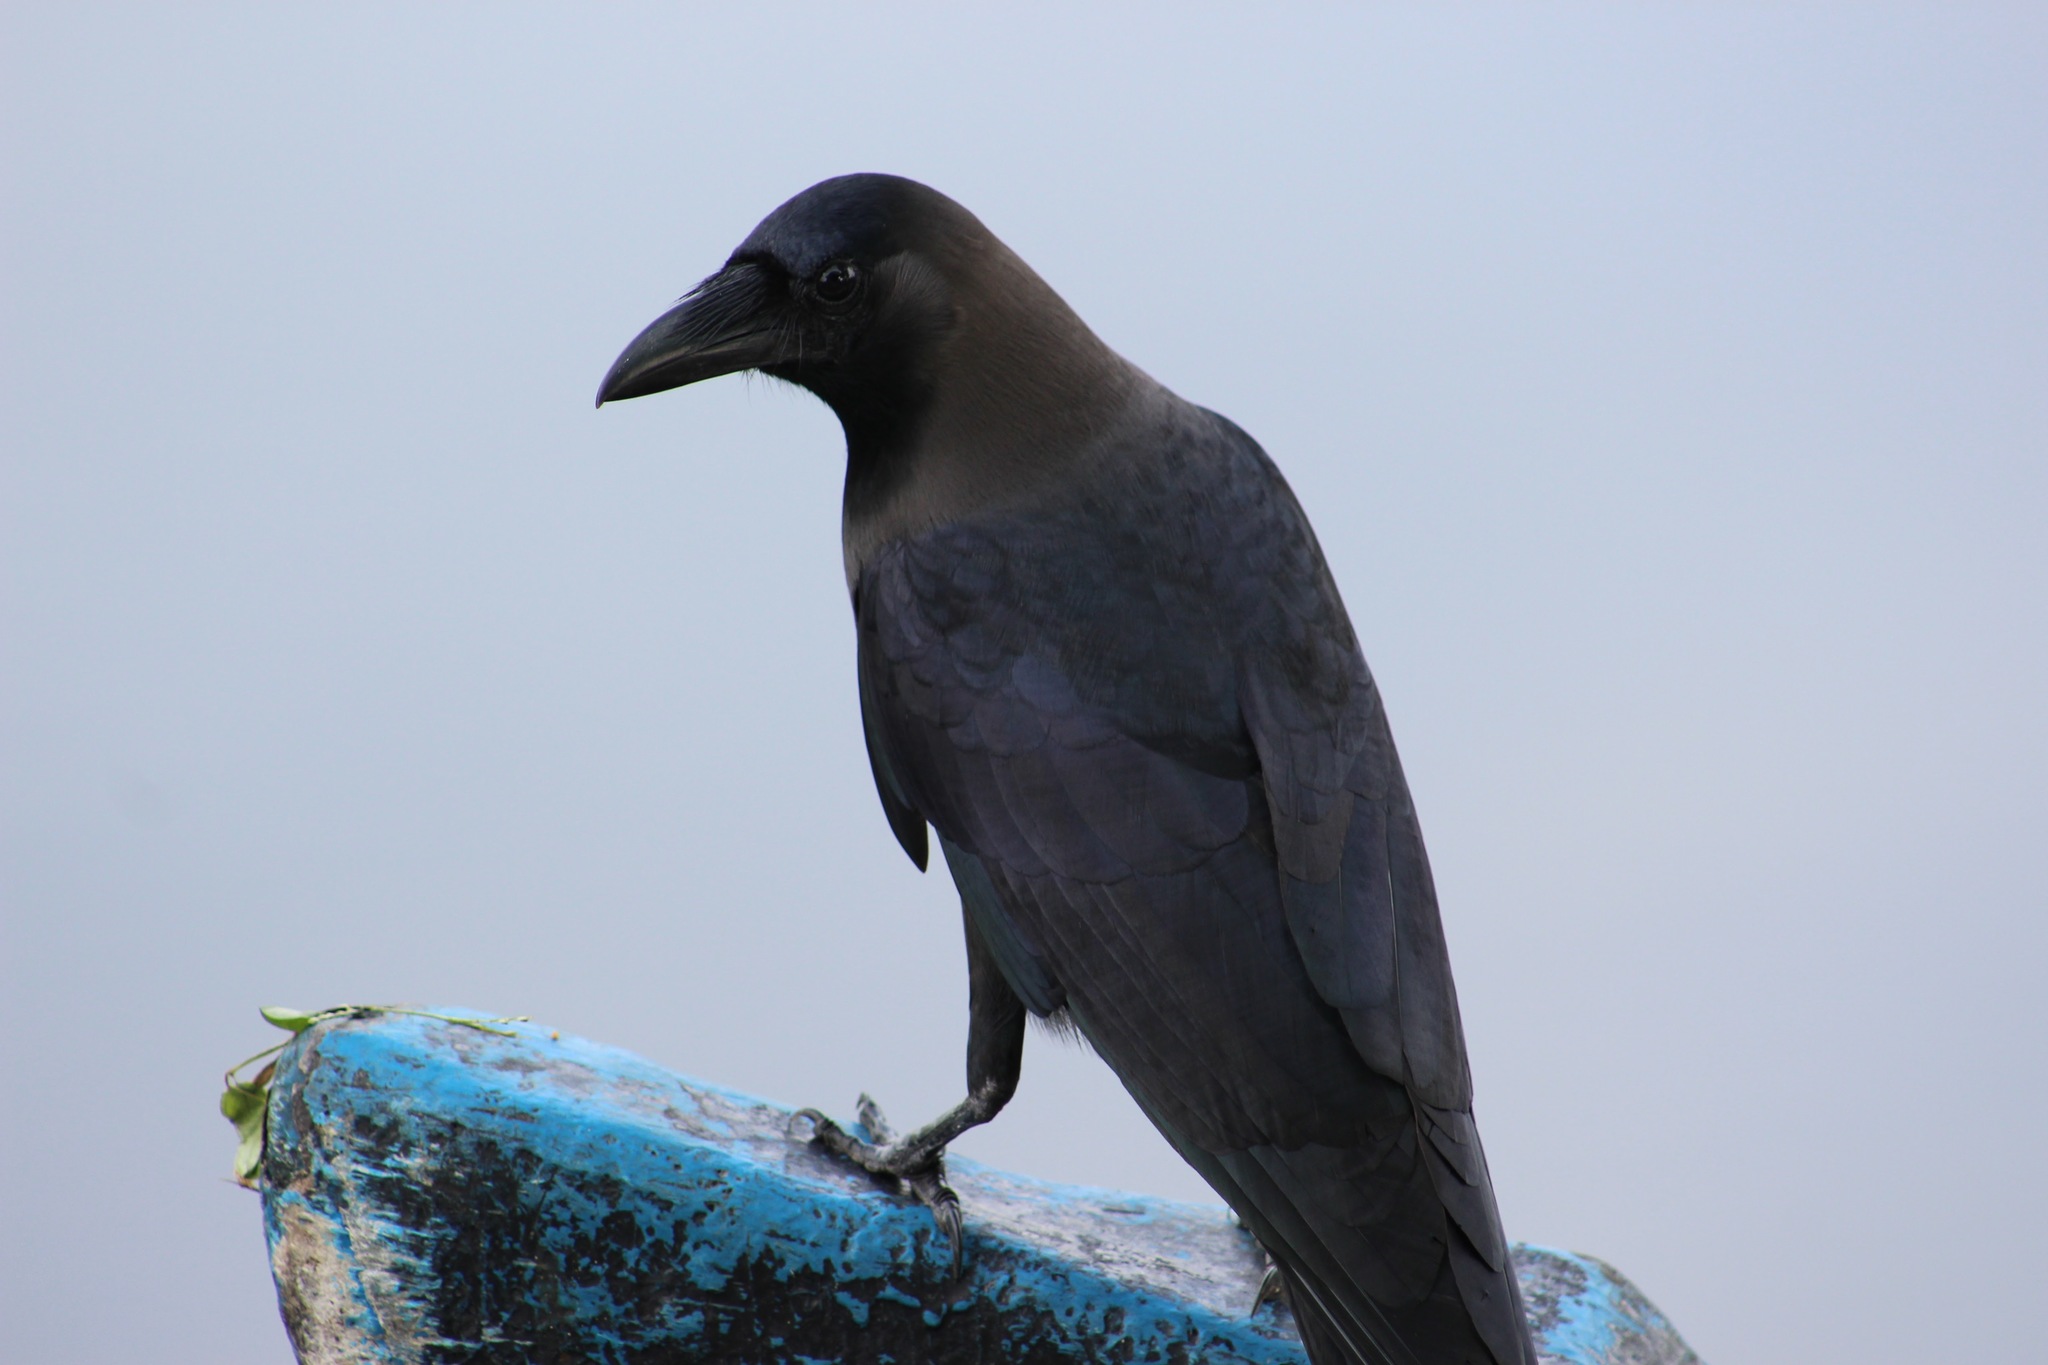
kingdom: Animalia
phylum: Chordata
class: Aves
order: Passeriformes
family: Corvidae
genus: Corvus
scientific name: Corvus splendens
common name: House crow
